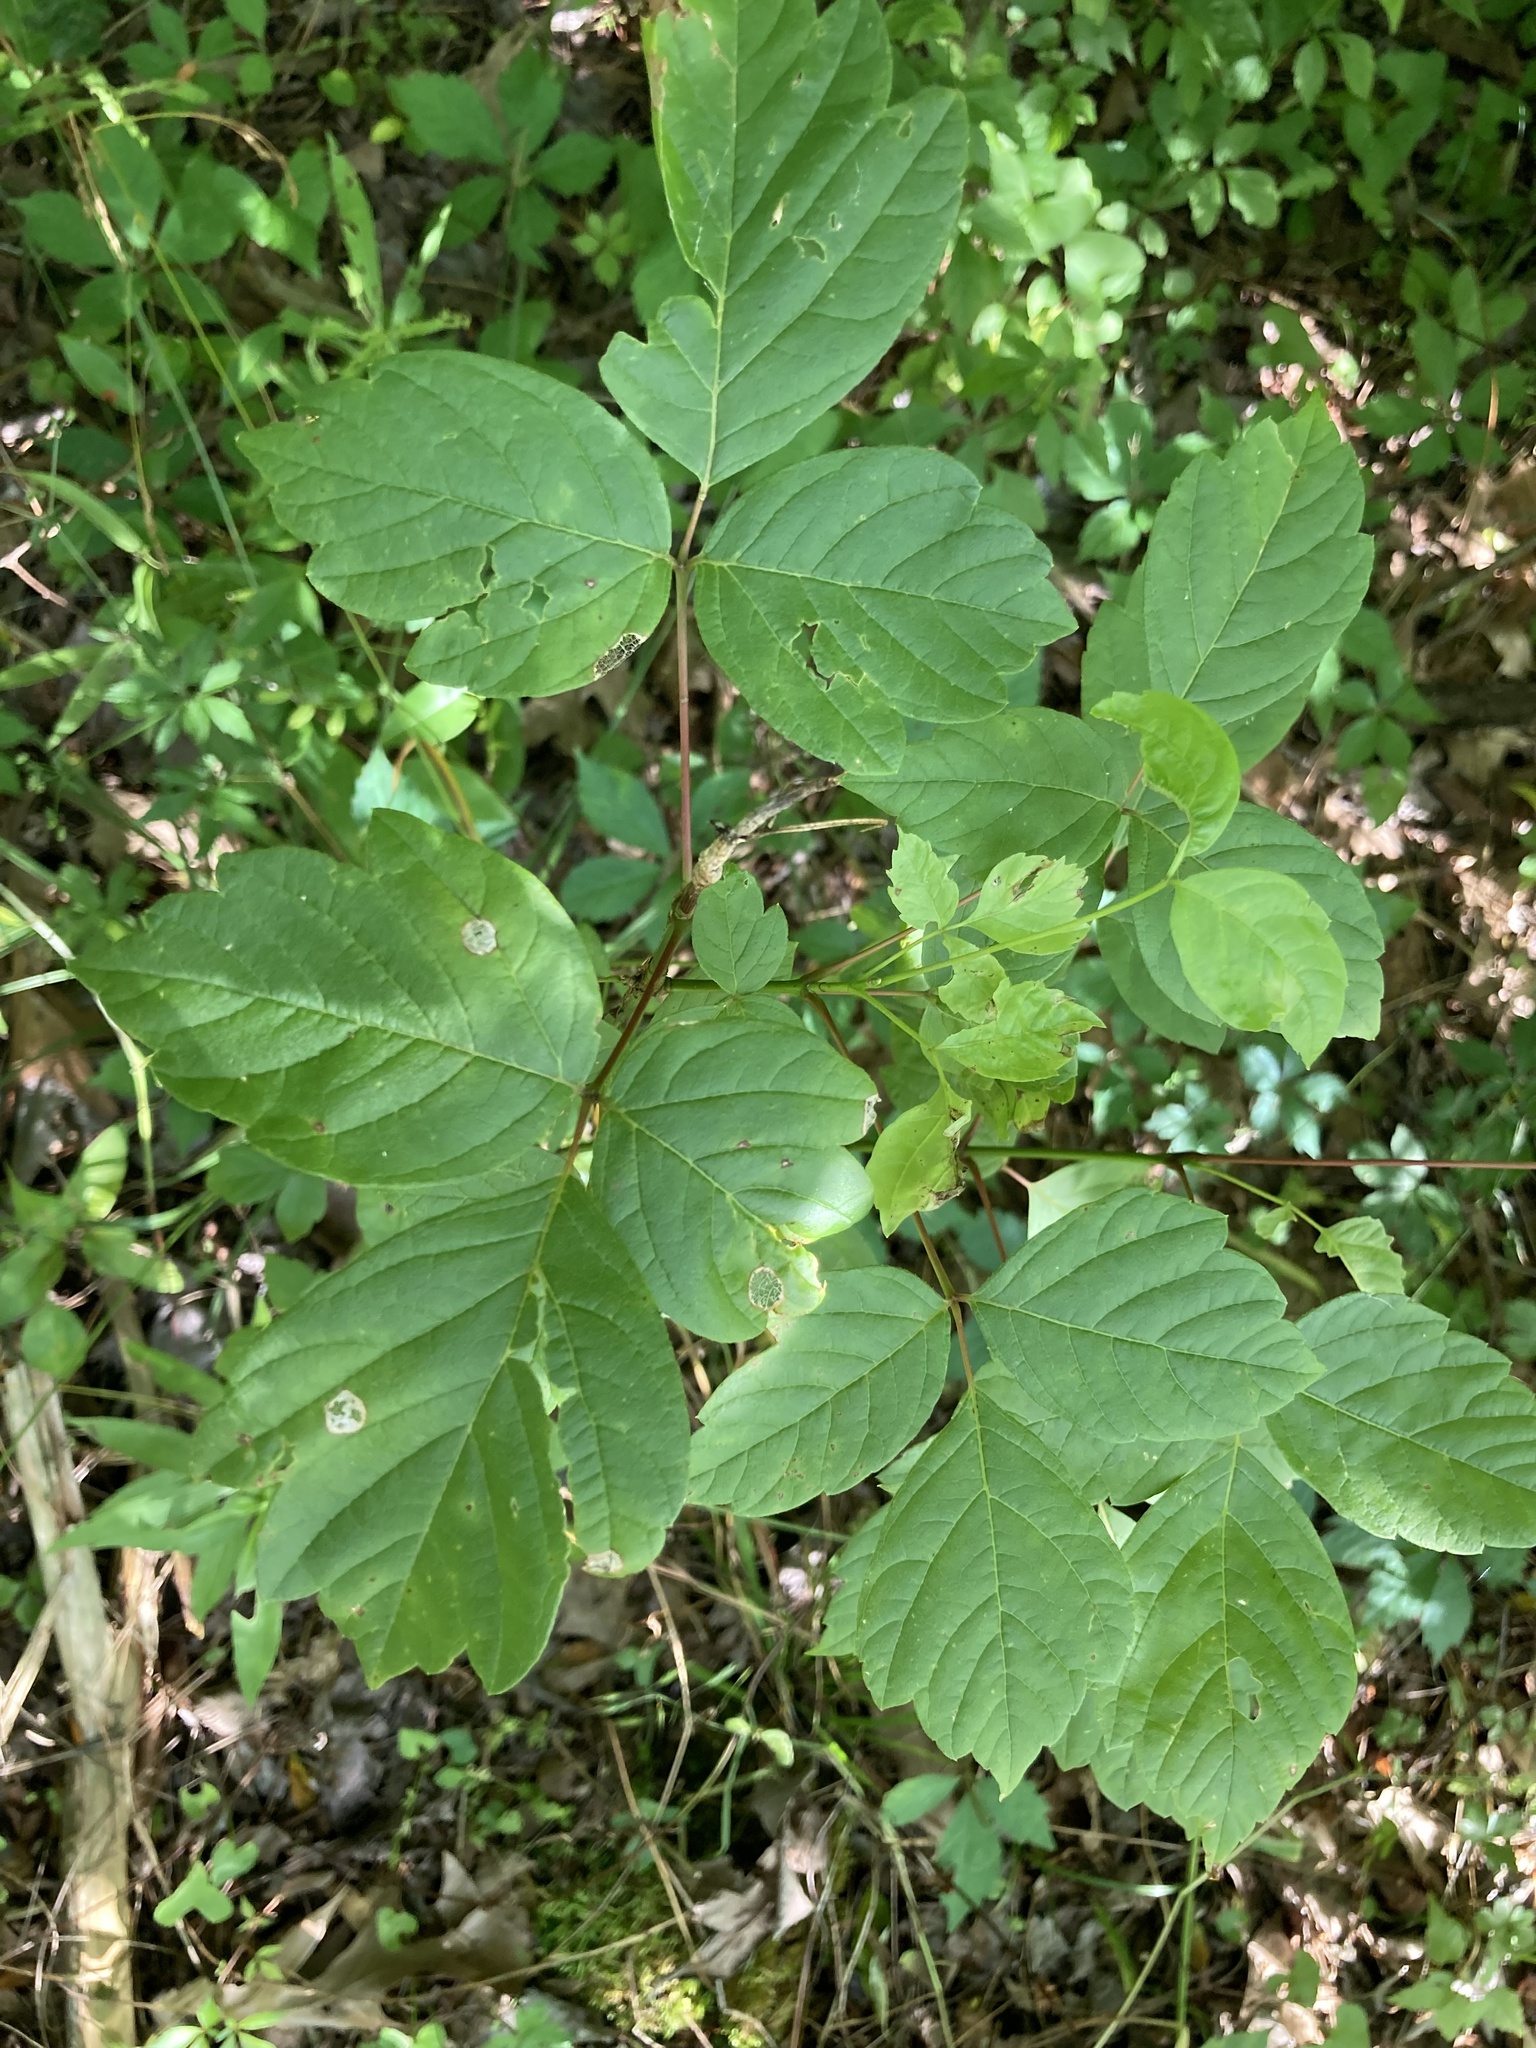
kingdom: Plantae
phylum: Tracheophyta
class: Magnoliopsida
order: Sapindales
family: Sapindaceae
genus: Acer
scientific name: Acer negundo
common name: Ashleaf maple
